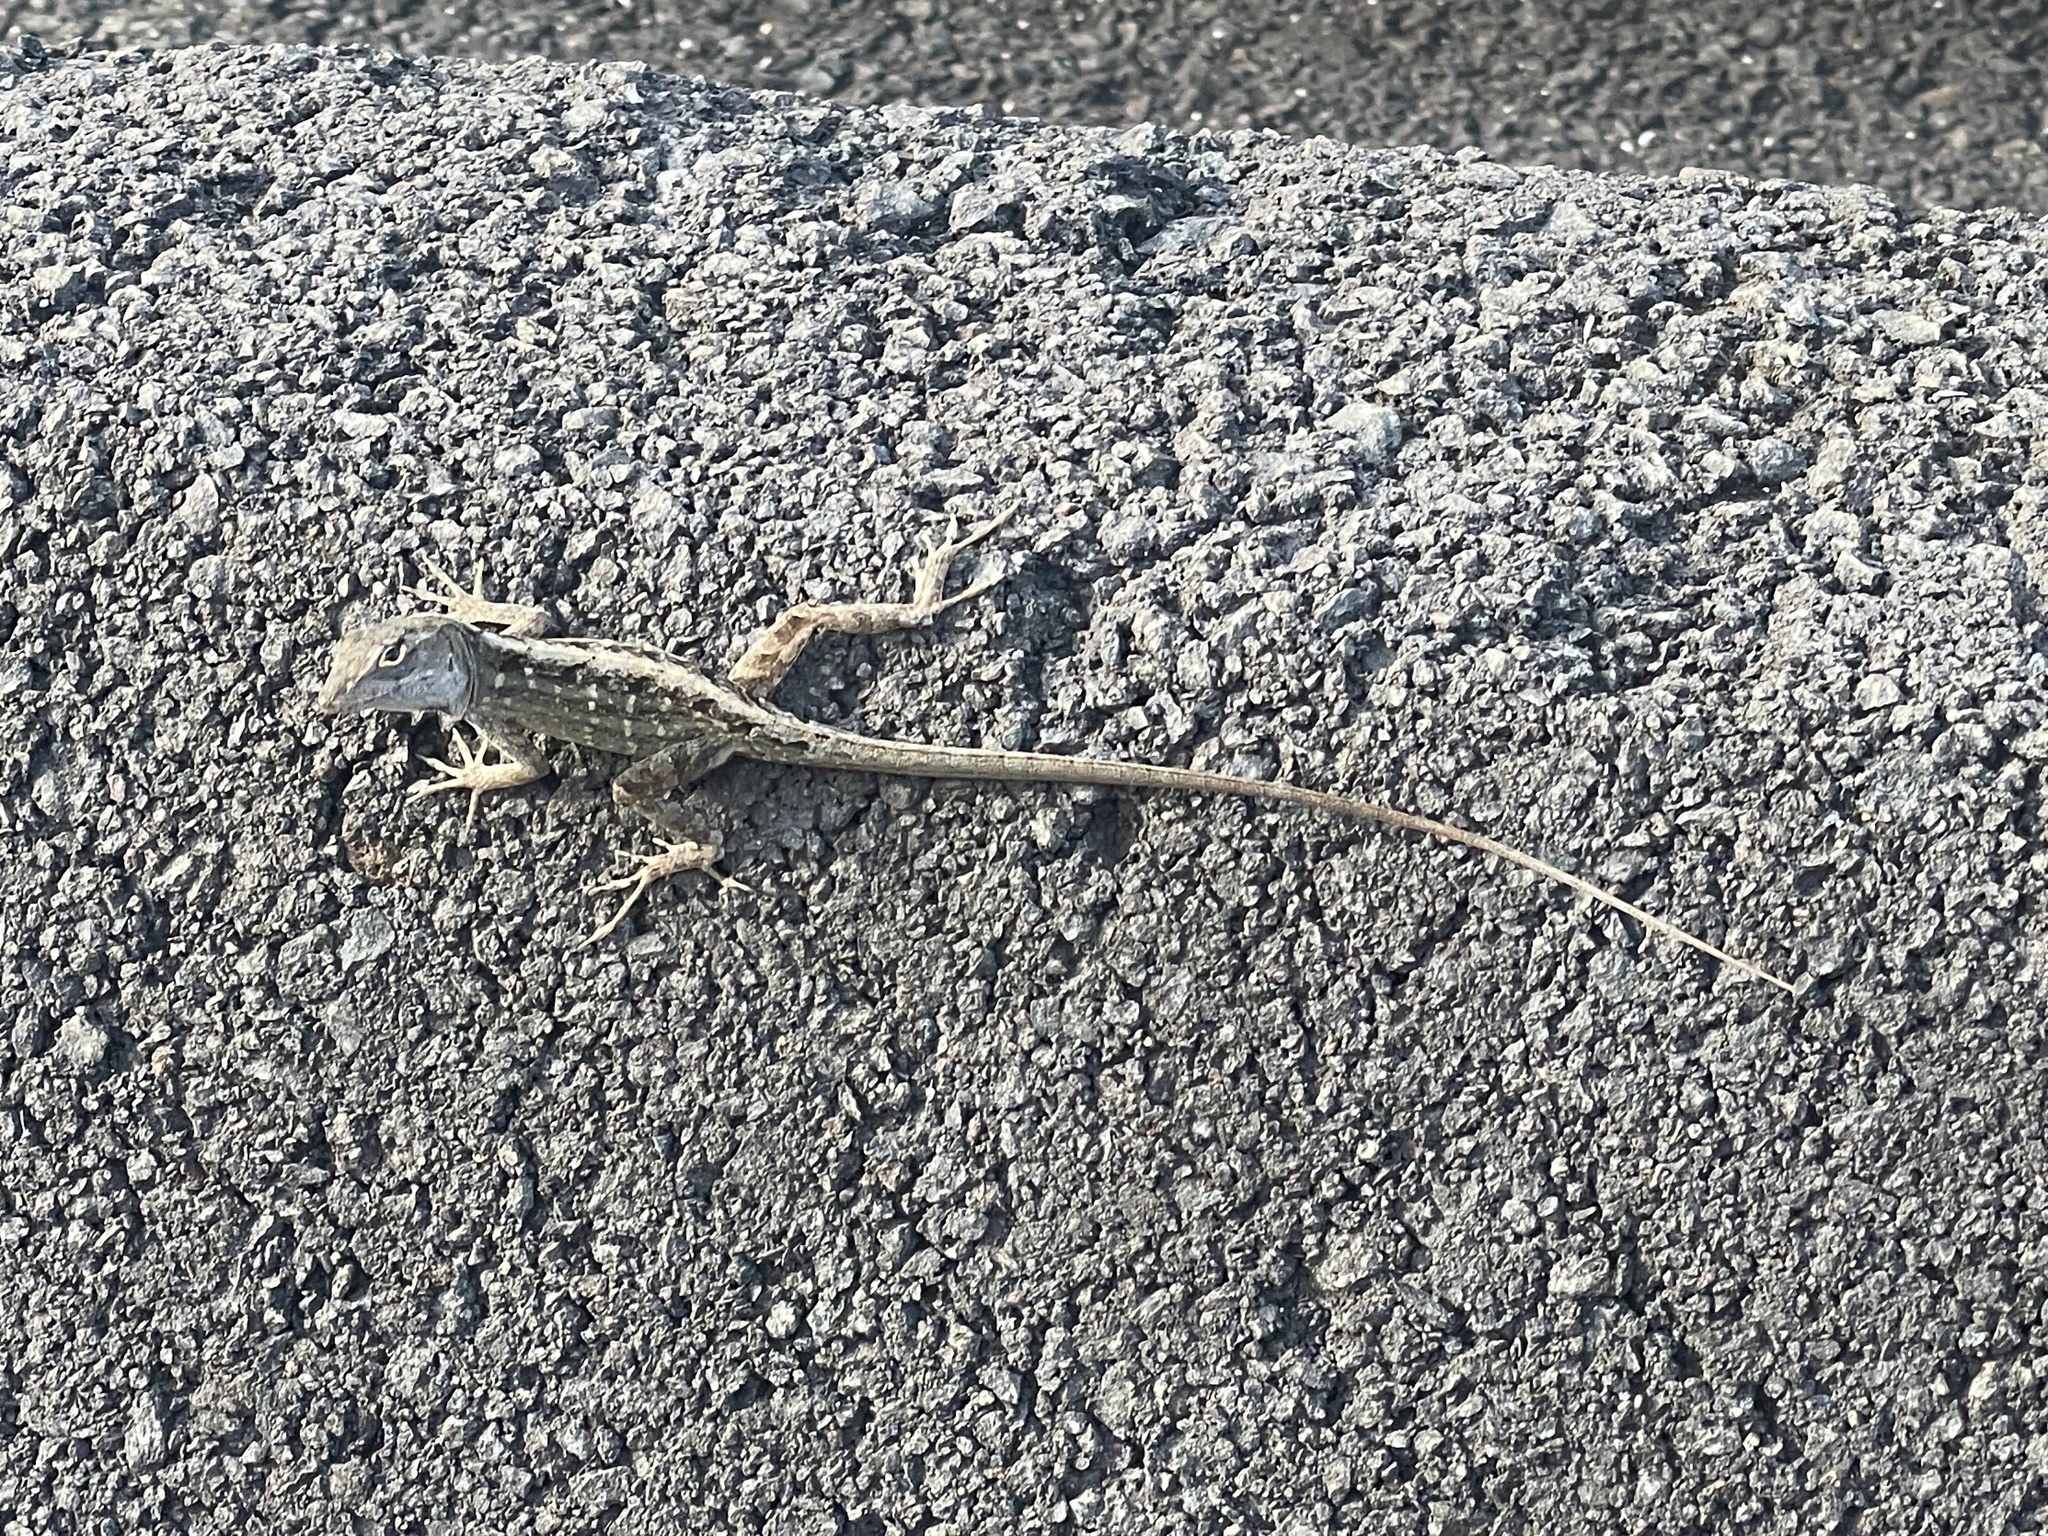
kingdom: Animalia
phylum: Chordata
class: Squamata
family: Dactyloidae
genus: Anolis
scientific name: Anolis sagrei
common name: Brown anole
